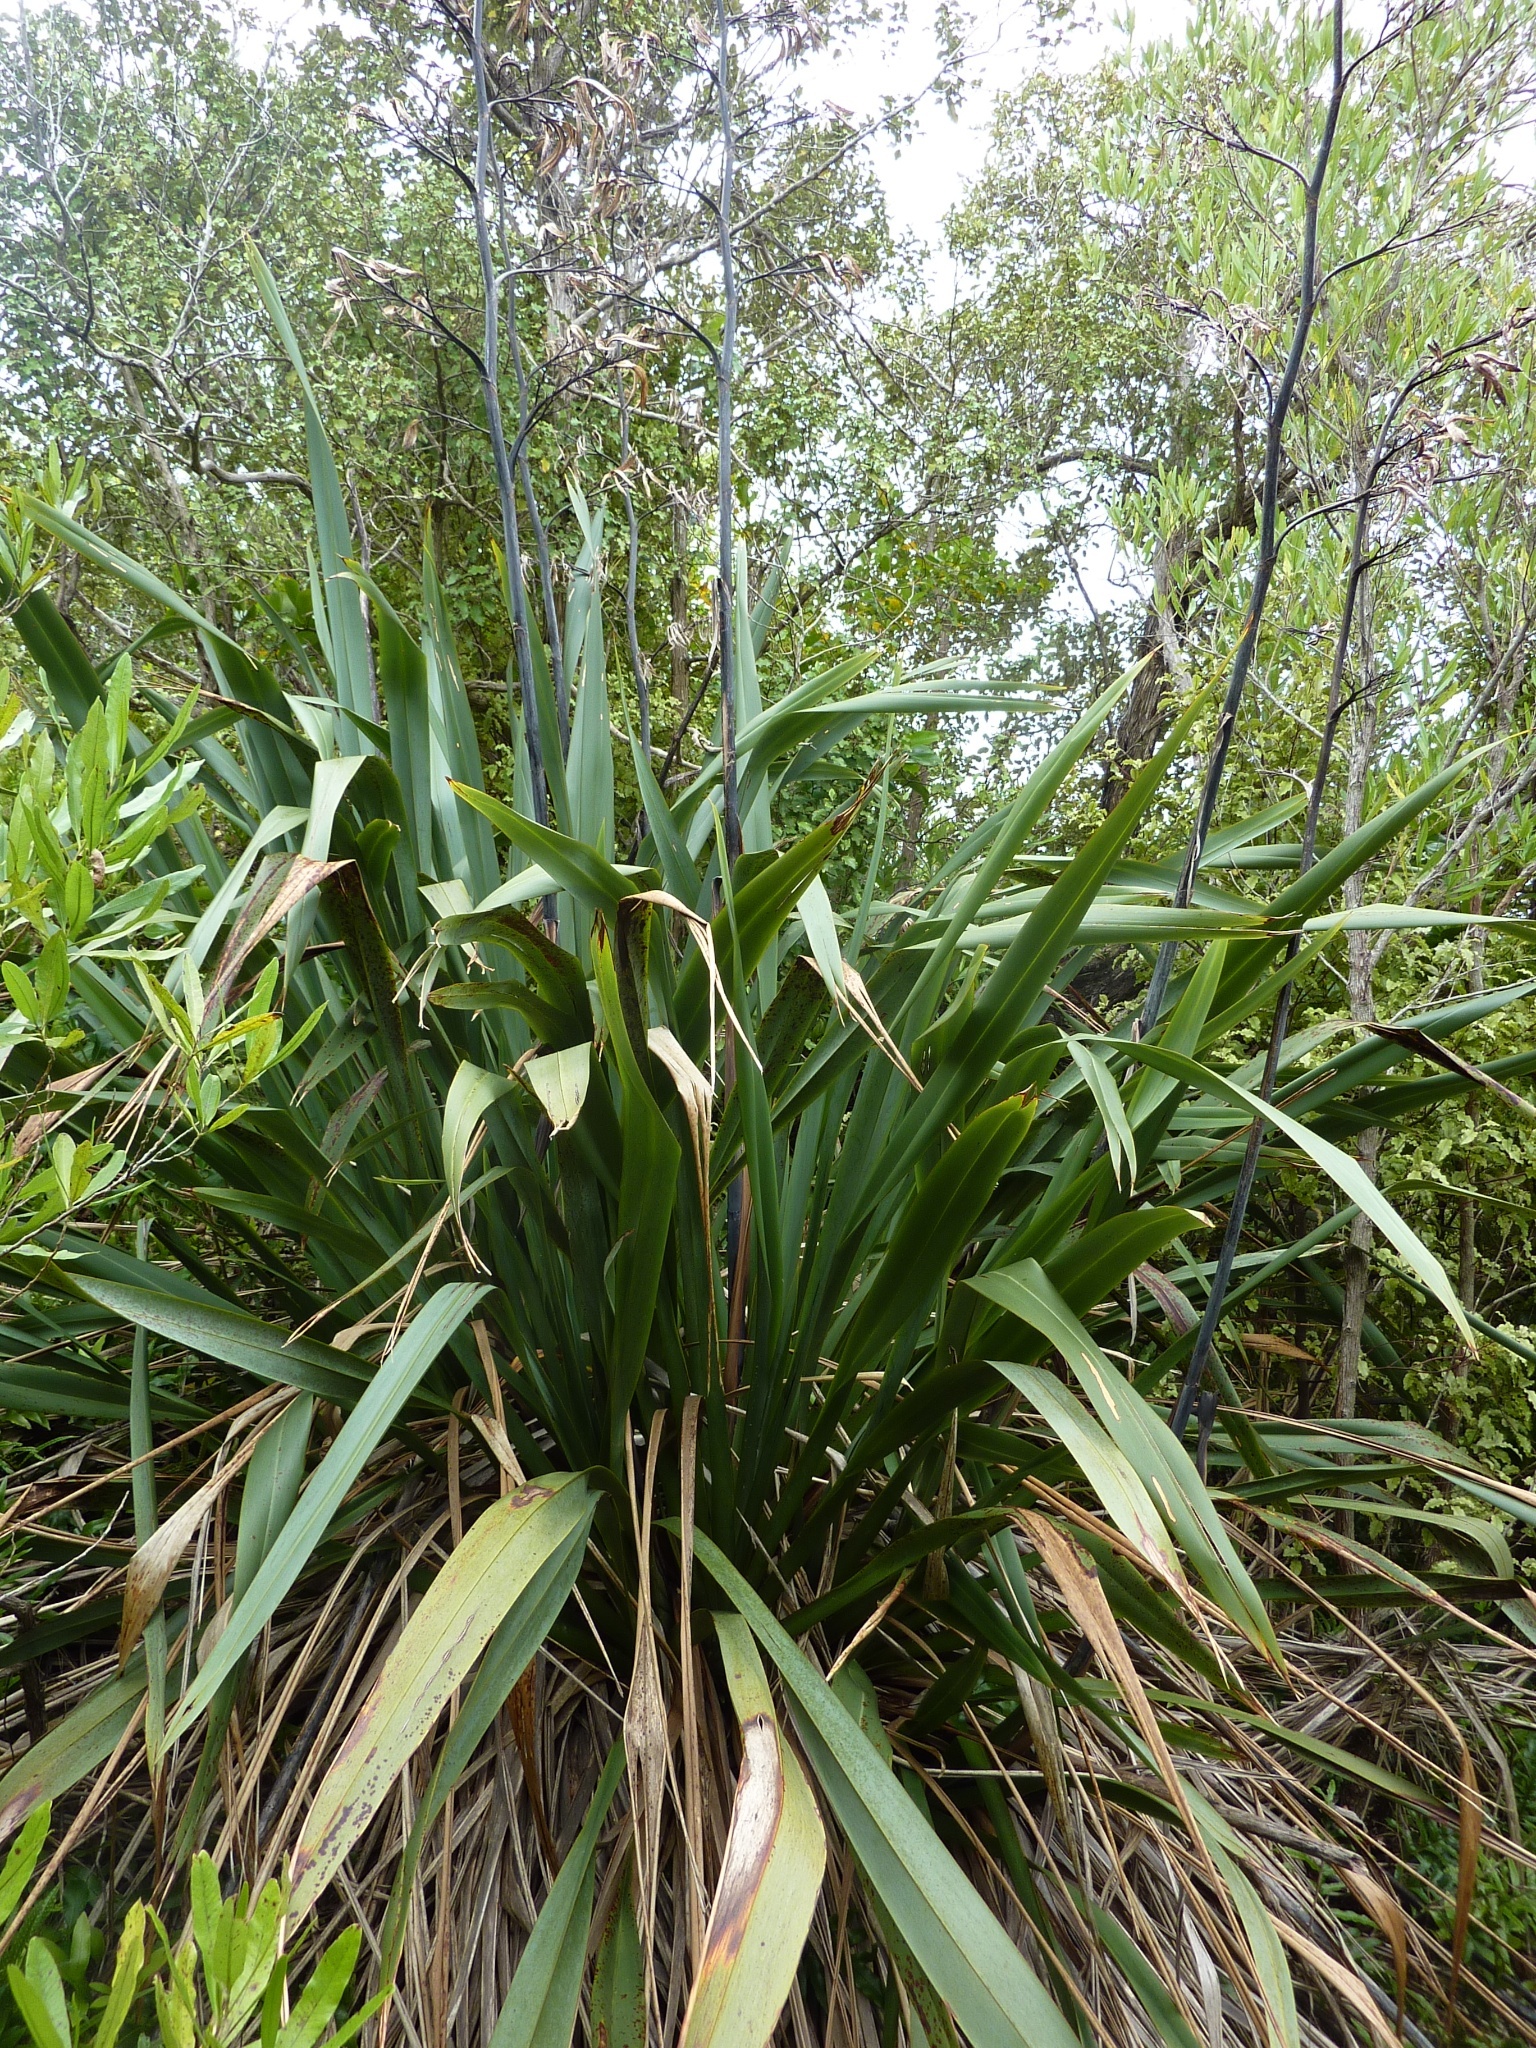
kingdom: Animalia
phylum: Arthropoda
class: Insecta
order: Lepidoptera
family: Geometridae
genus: Orthoclydon
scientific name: Orthoclydon praefectata
